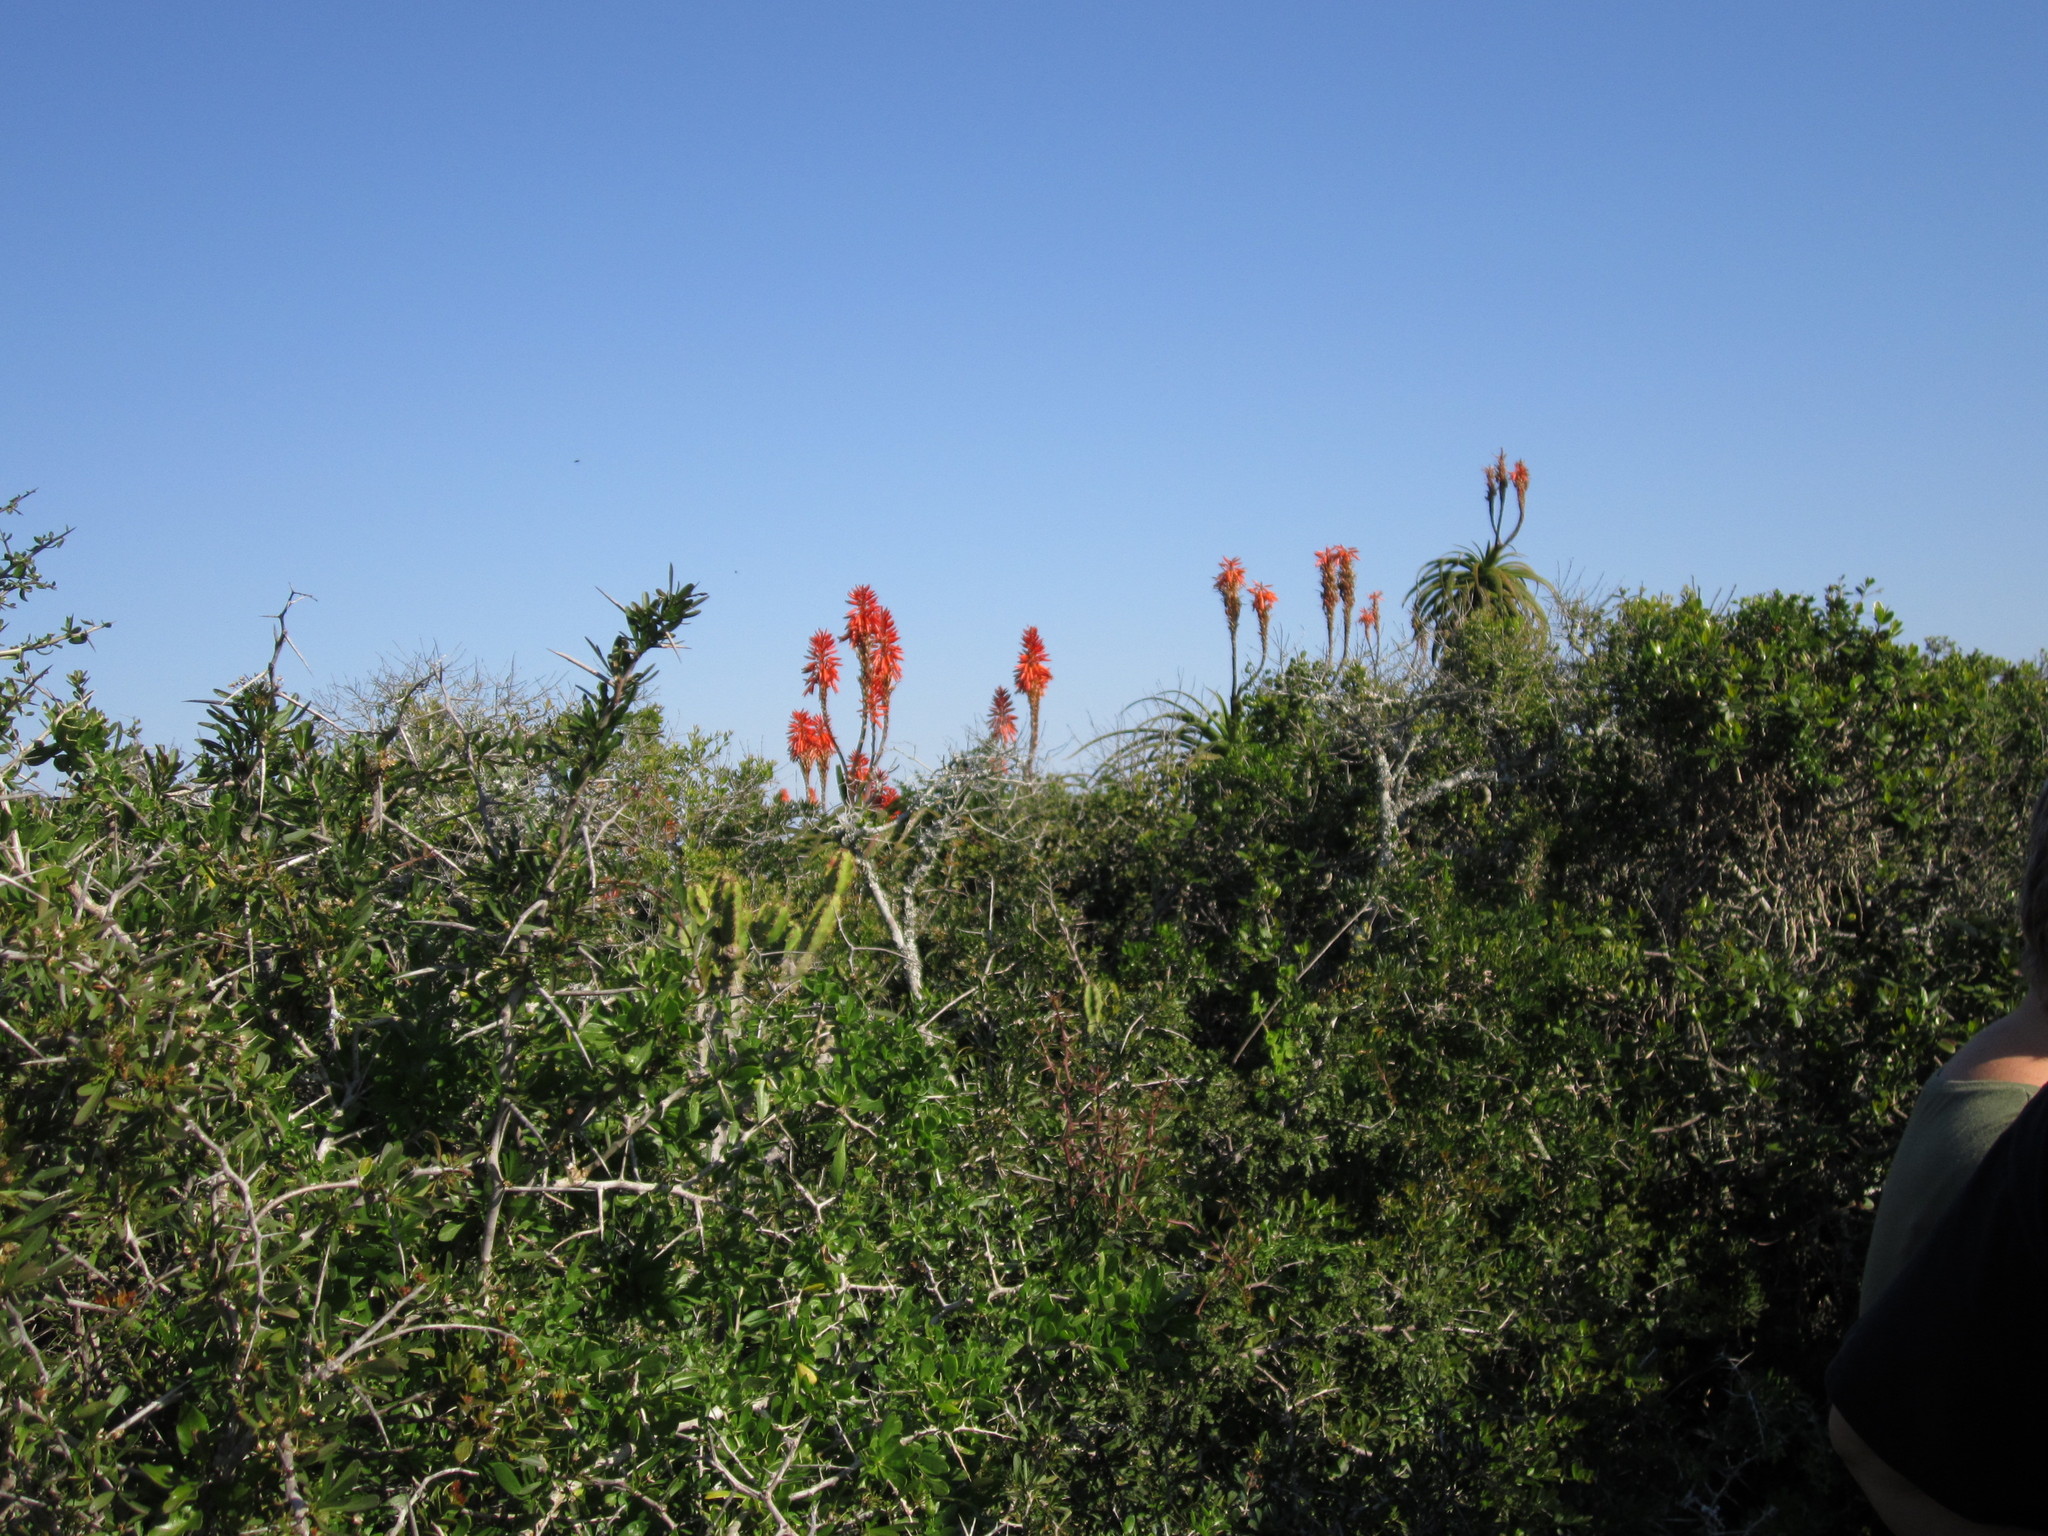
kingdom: Plantae
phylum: Tracheophyta
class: Liliopsida
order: Asparagales
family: Asphodelaceae
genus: Aloe
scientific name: Aloe pluridens
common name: French aloe
